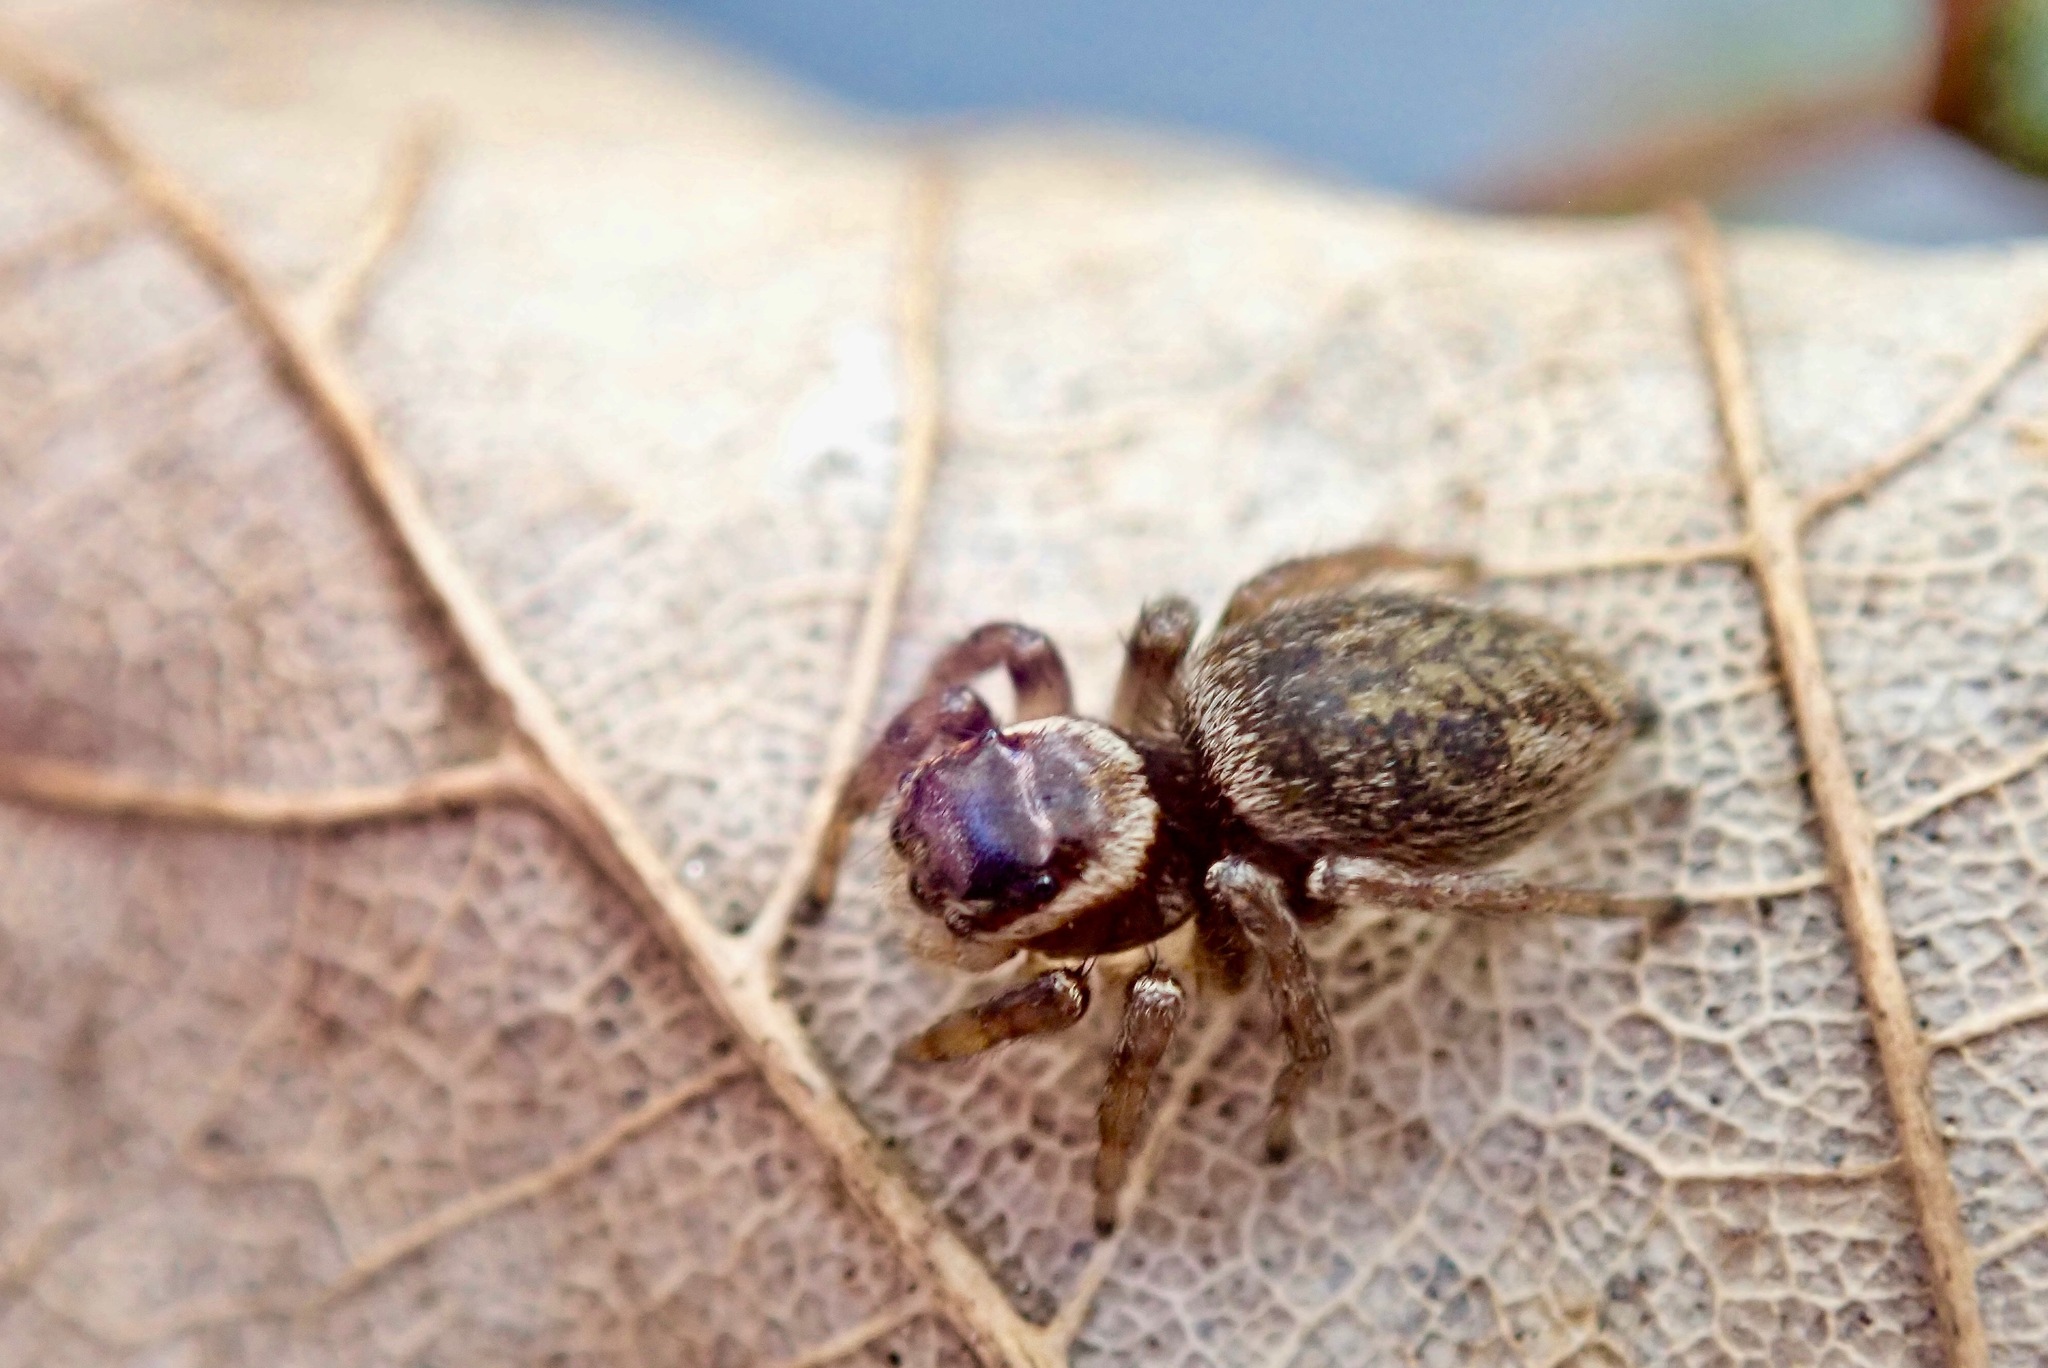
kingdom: Animalia
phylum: Arthropoda
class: Arachnida
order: Araneae
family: Salticidae
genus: Maratus
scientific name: Maratus griseus
